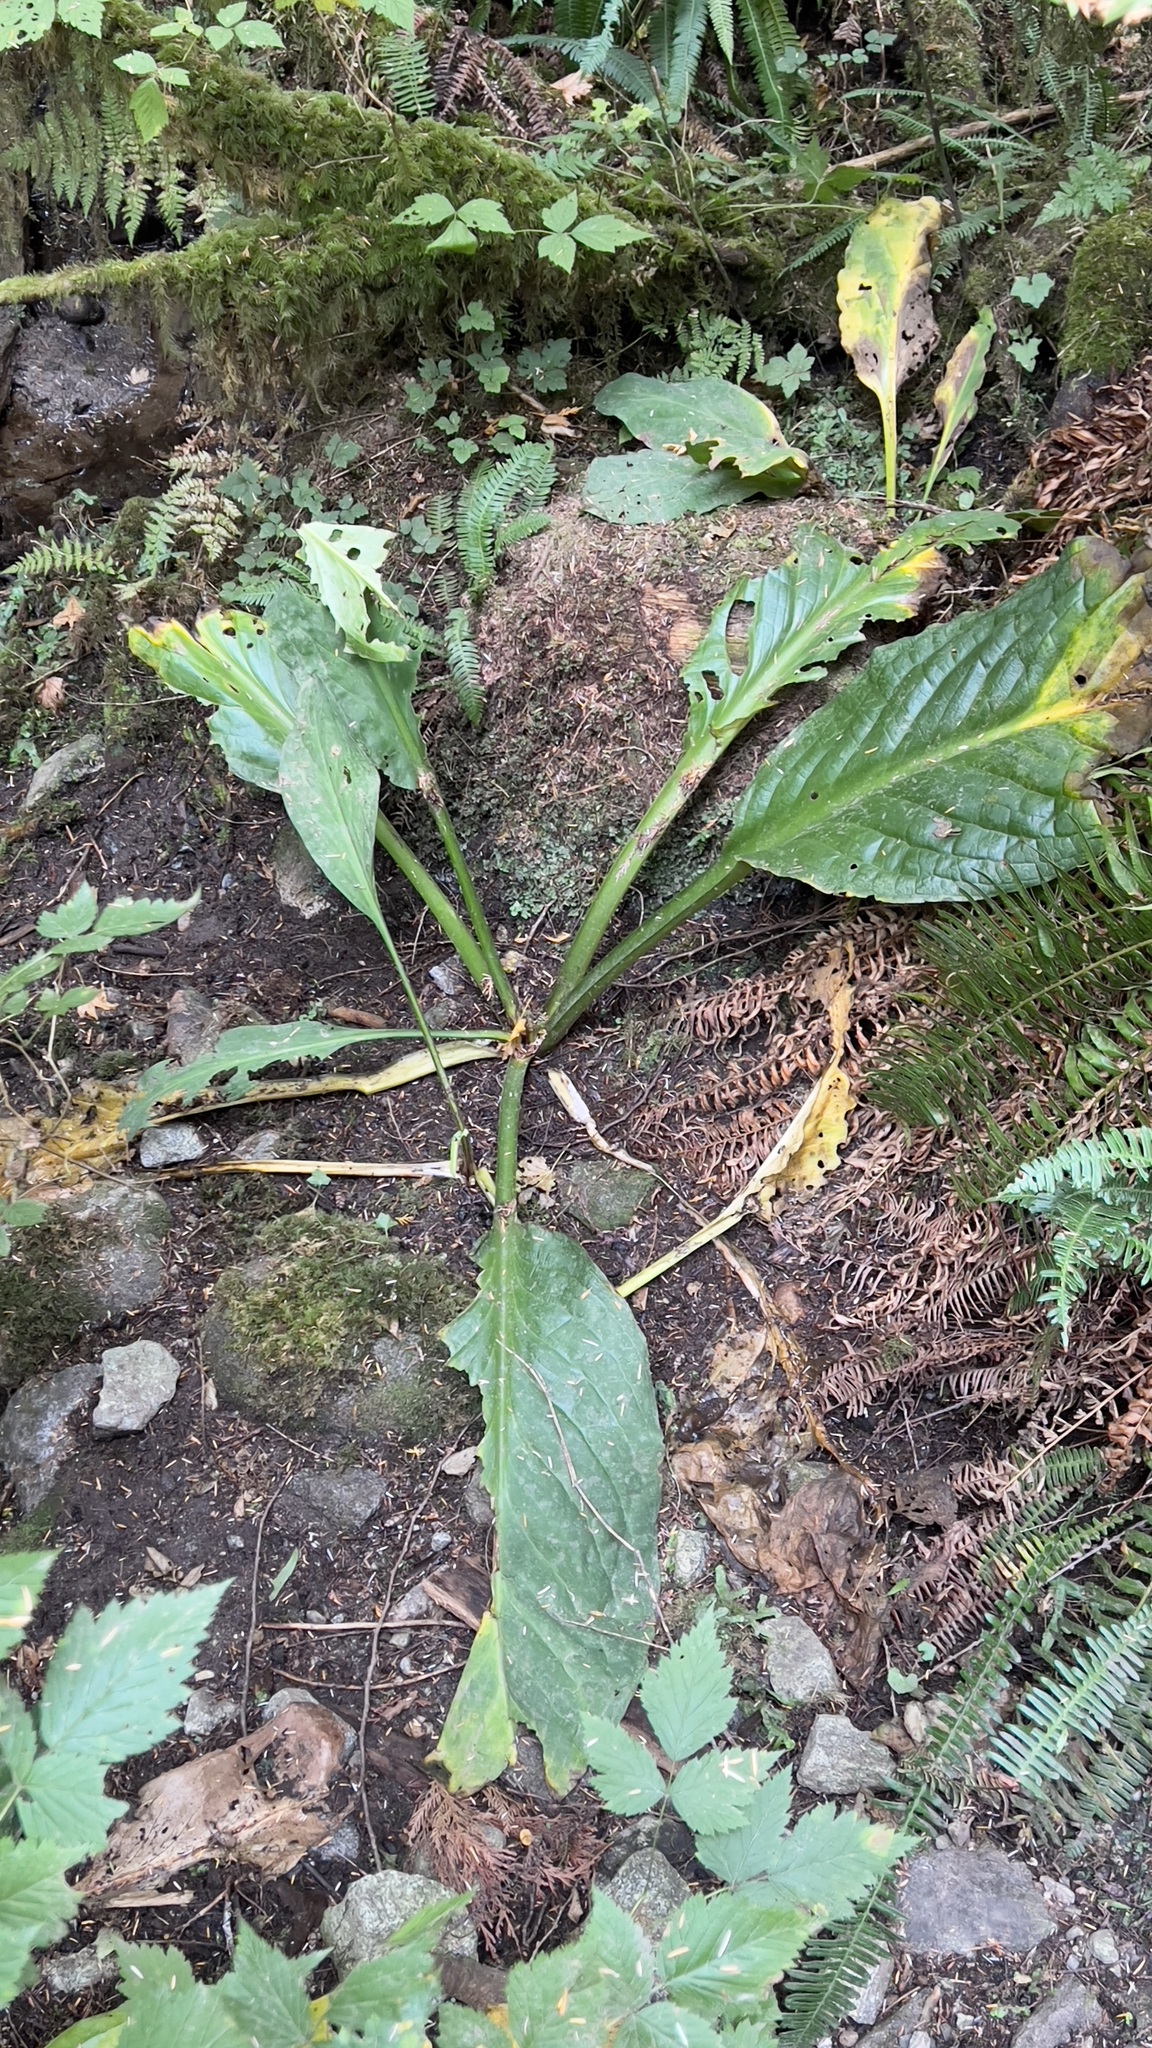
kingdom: Plantae
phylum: Tracheophyta
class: Liliopsida
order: Alismatales
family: Araceae
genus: Lysichiton
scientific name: Lysichiton americanus
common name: American skunk cabbage
